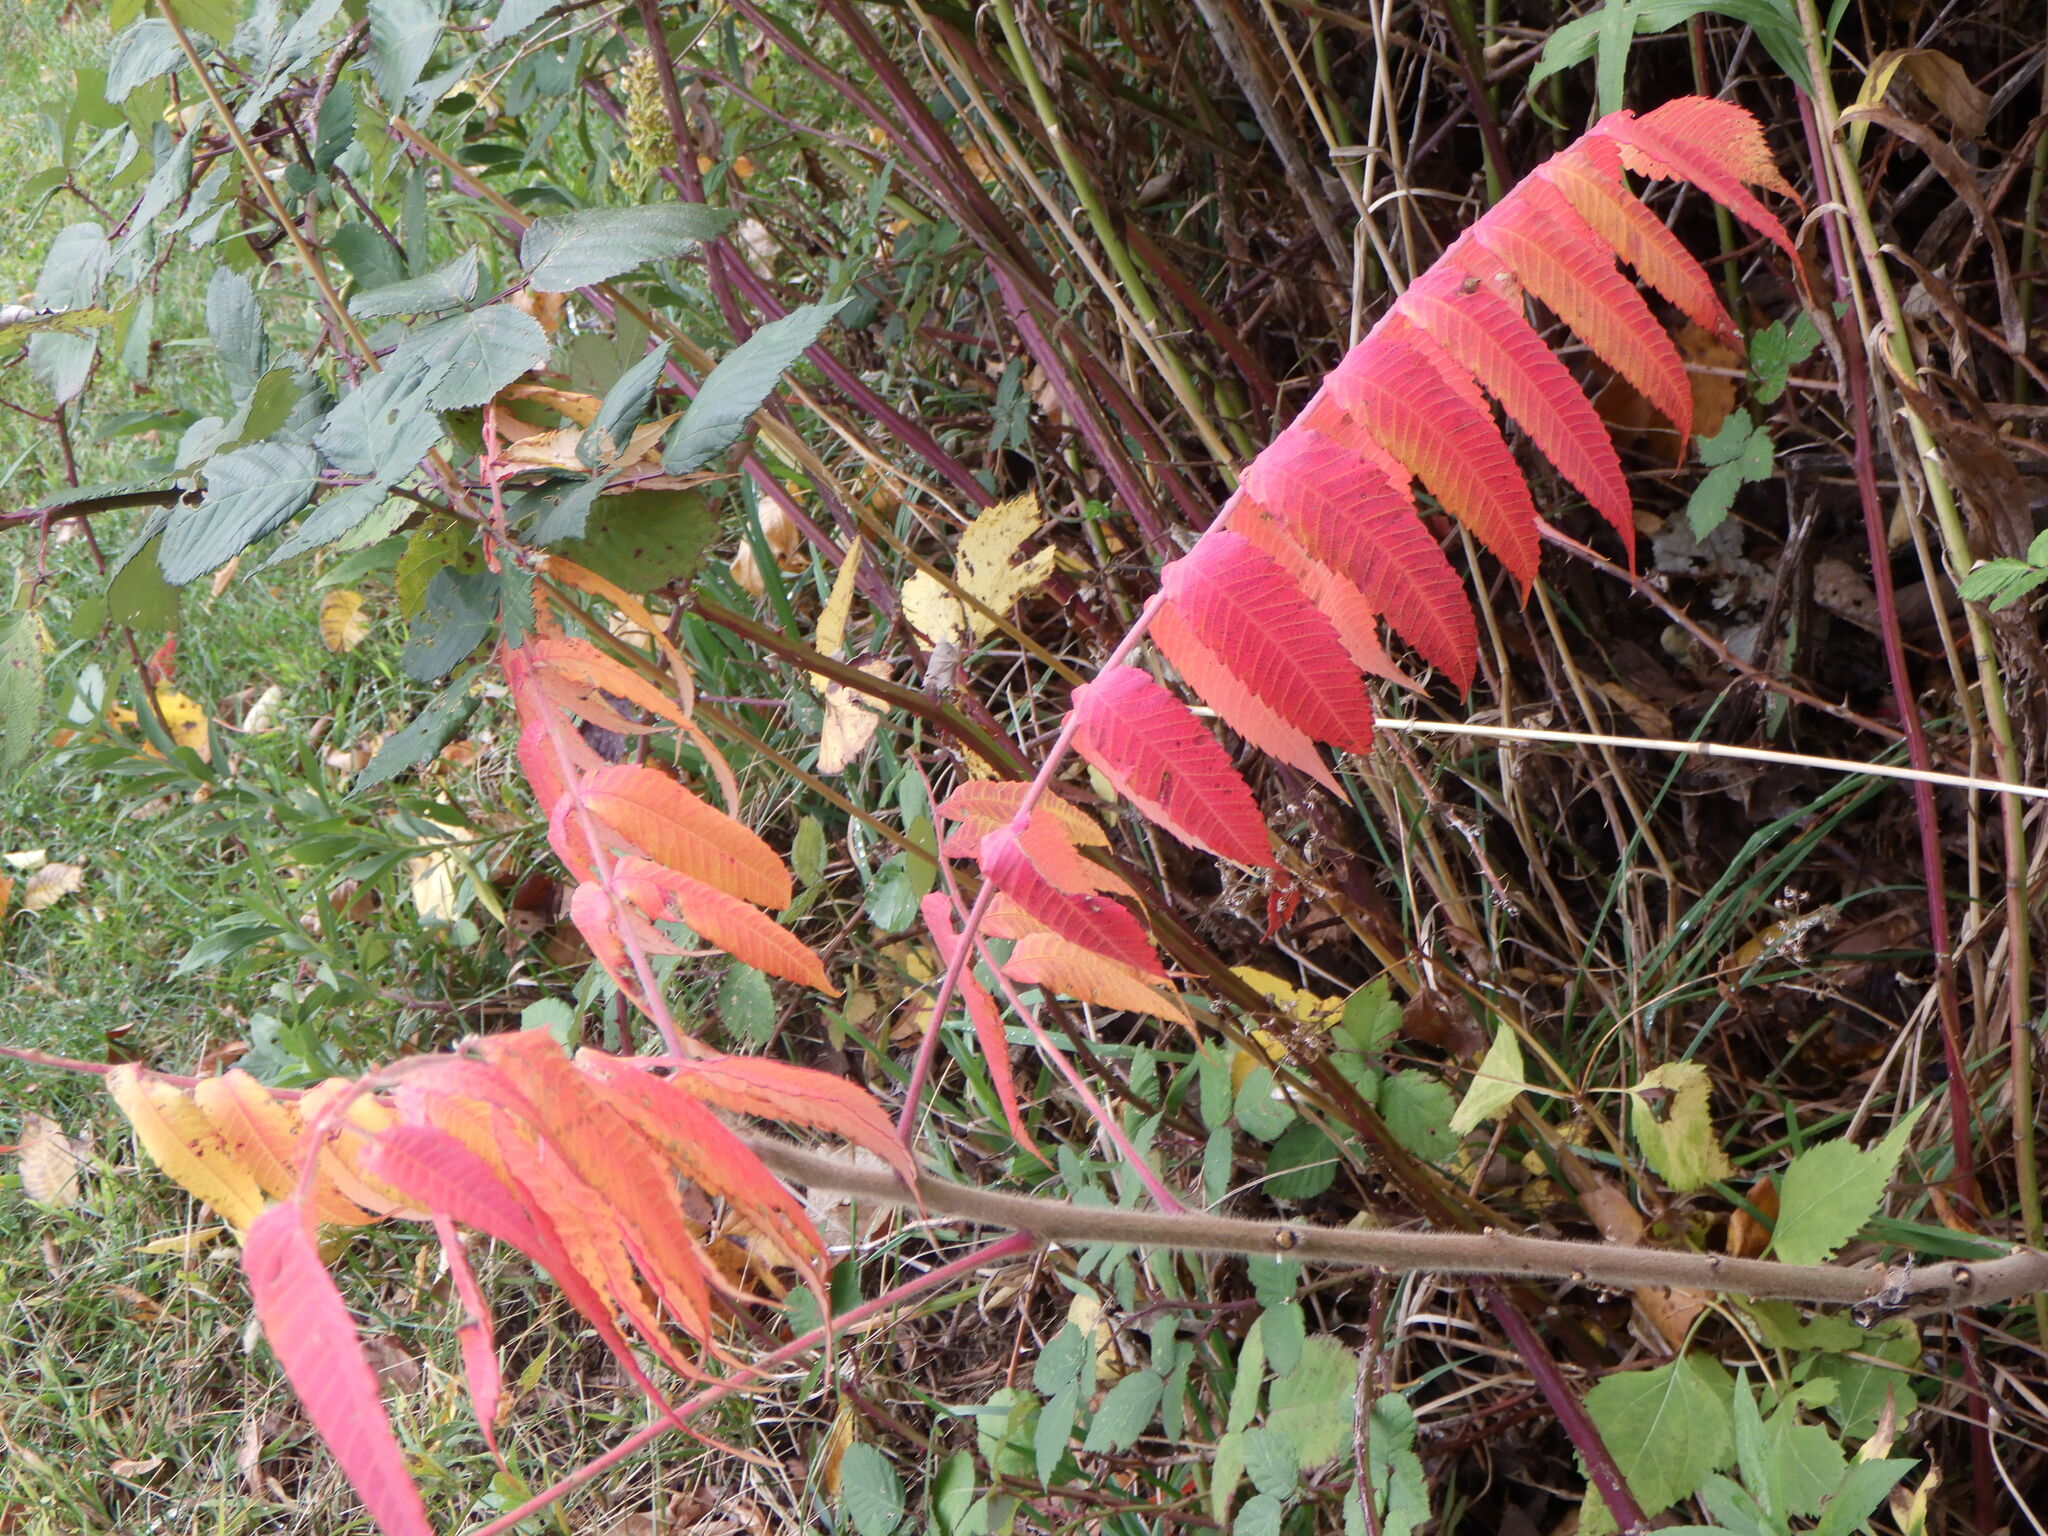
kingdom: Plantae
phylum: Tracheophyta
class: Magnoliopsida
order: Sapindales
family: Anacardiaceae
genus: Rhus
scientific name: Rhus typhina
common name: Staghorn sumac
